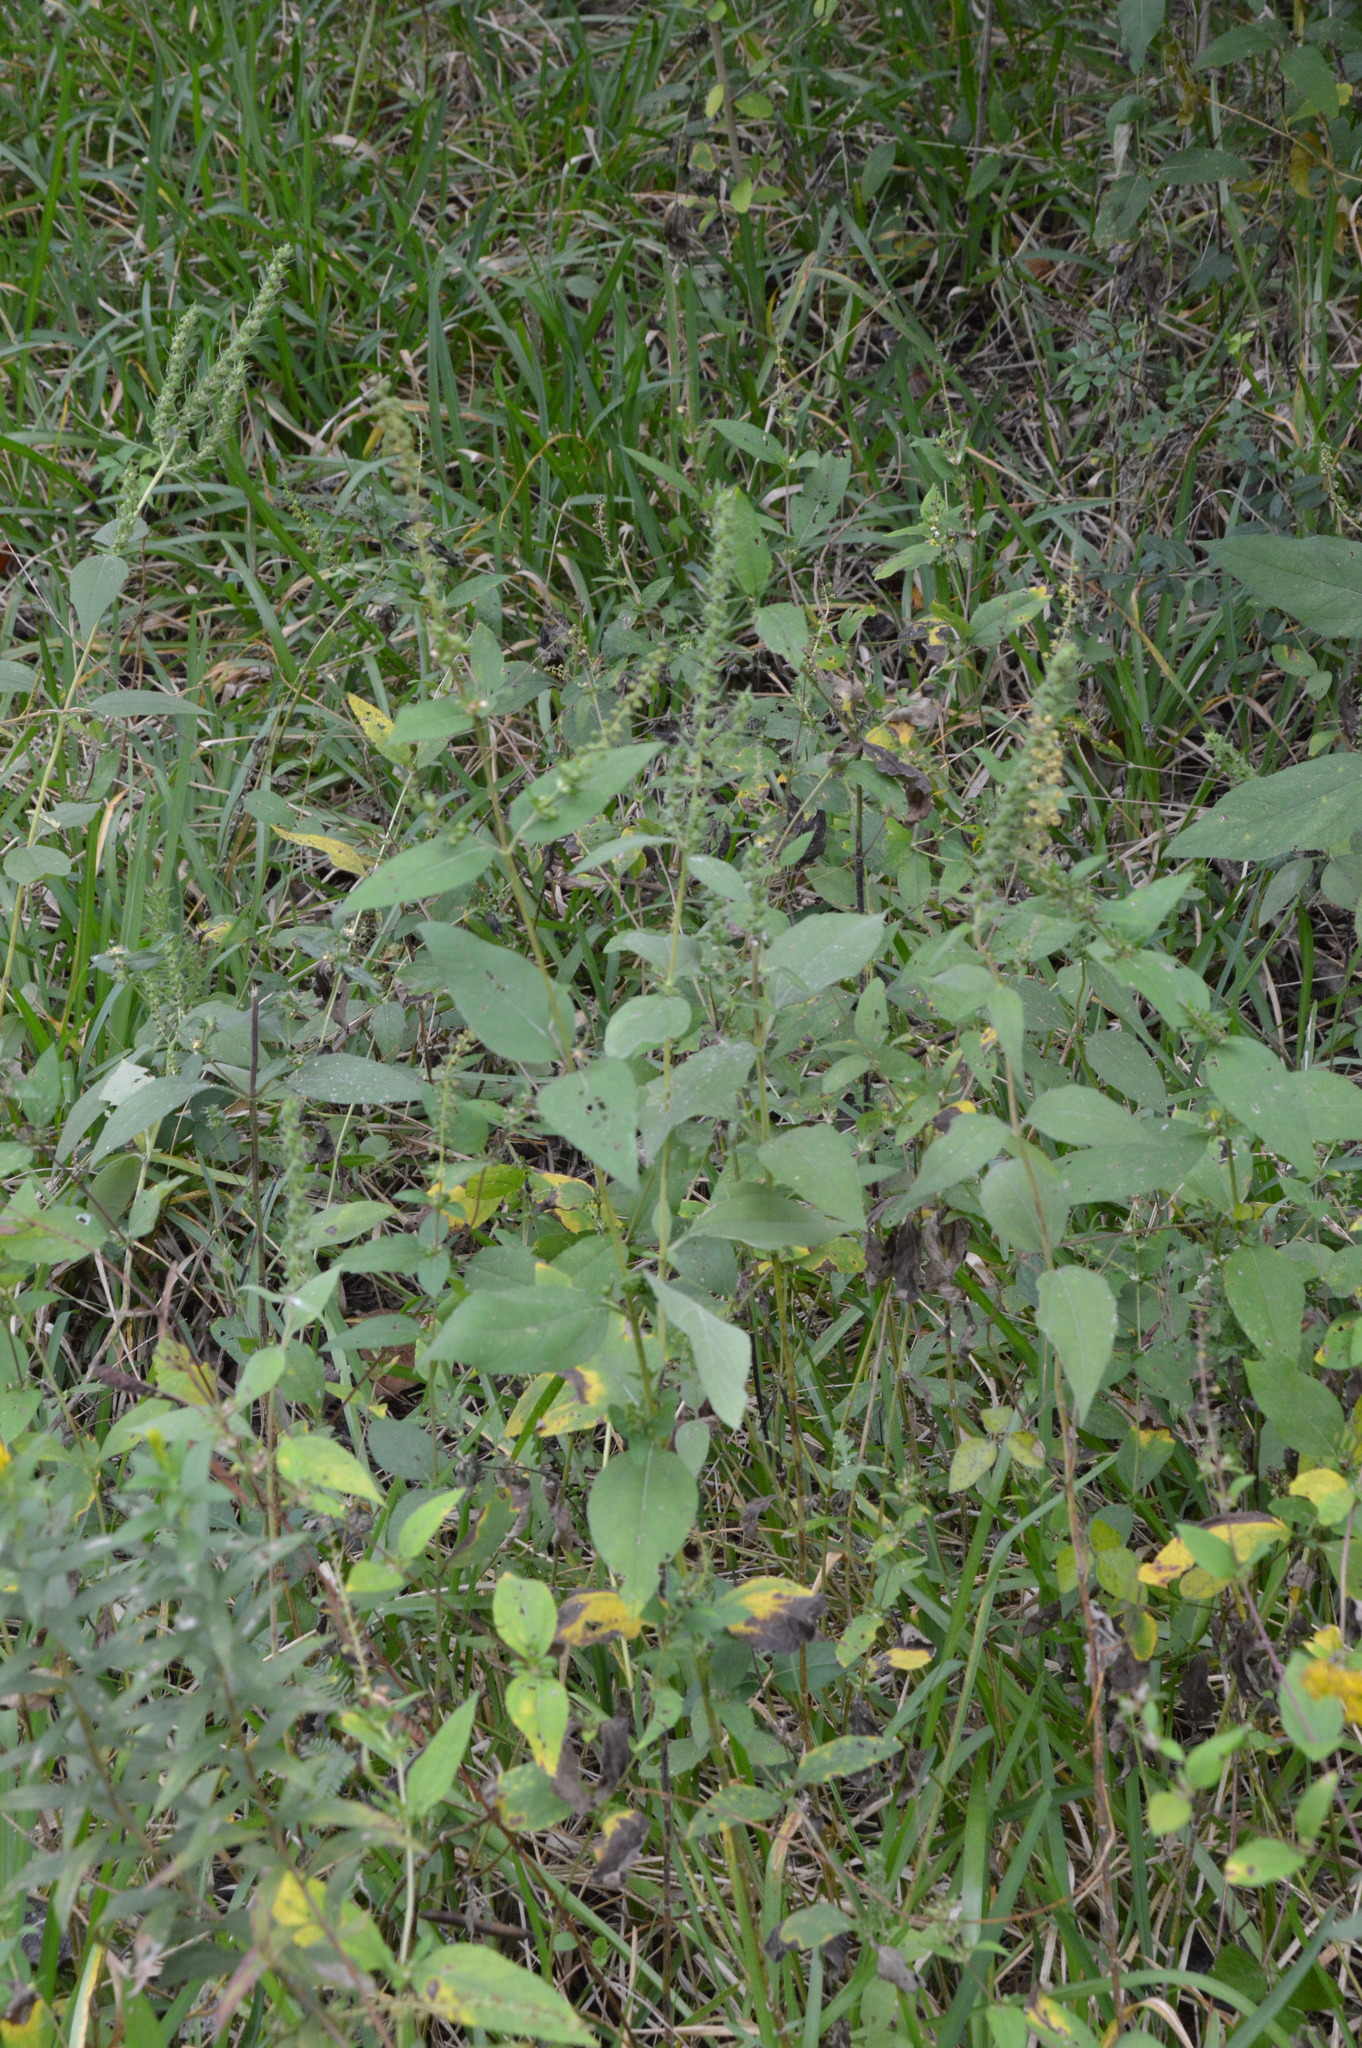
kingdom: Plantae
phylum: Tracheophyta
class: Magnoliopsida
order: Asterales
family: Asteraceae
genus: Iva
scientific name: Iva annua
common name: Marsh-elder
